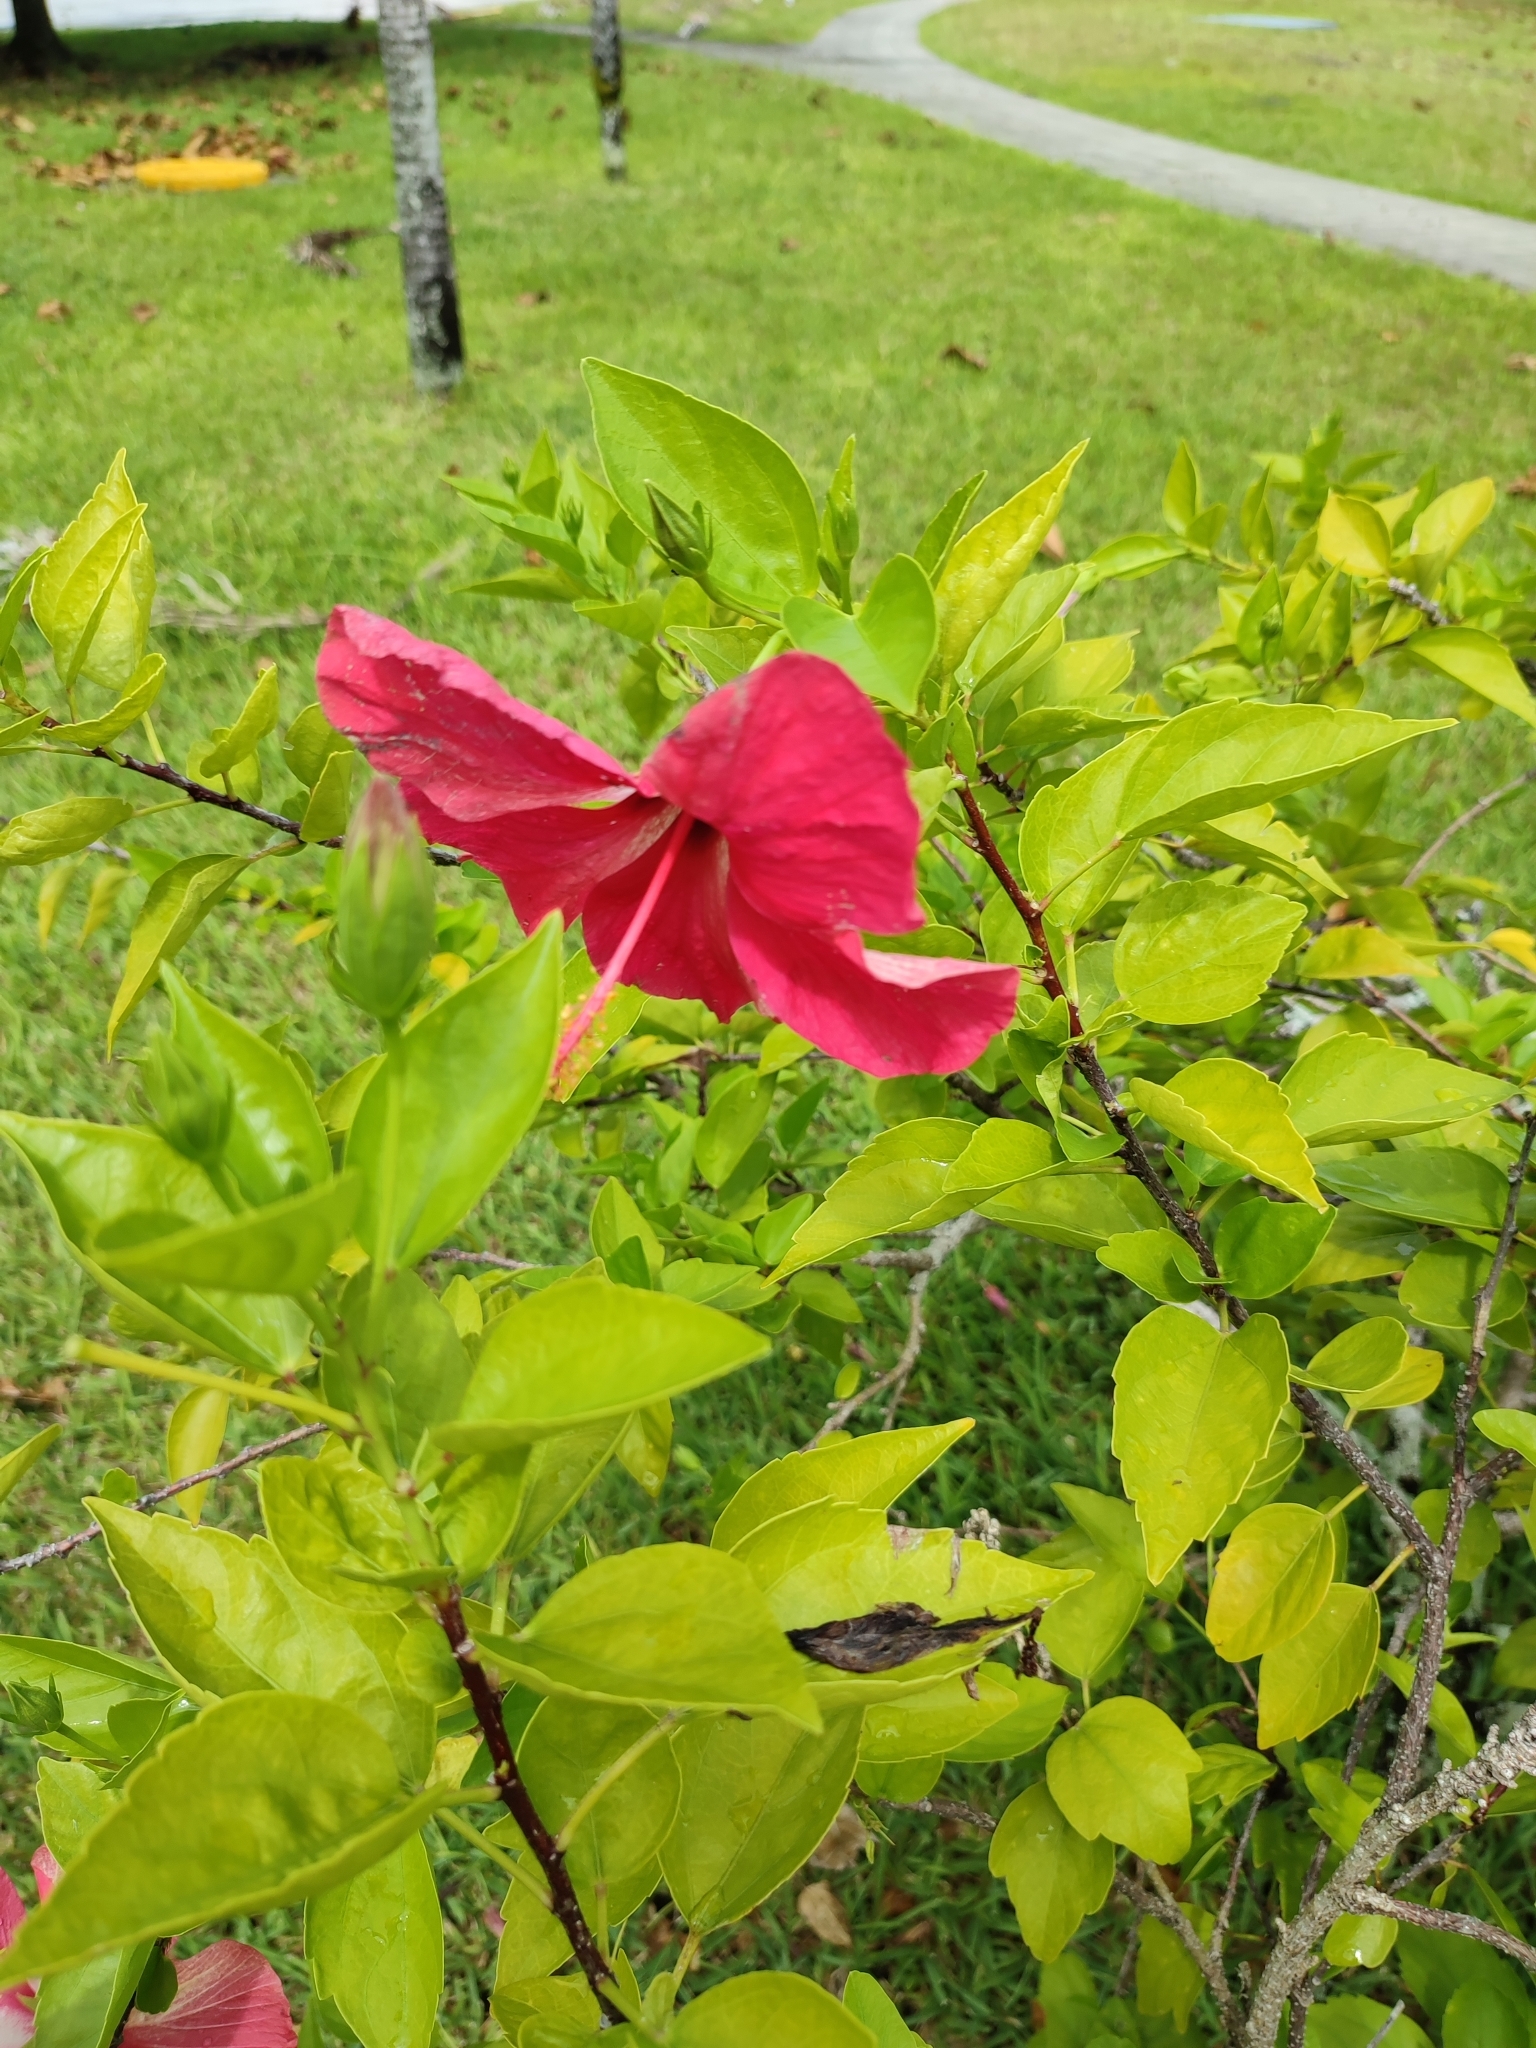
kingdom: Plantae
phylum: Tracheophyta
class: Magnoliopsida
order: Malvales
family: Malvaceae
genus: Hibiscus
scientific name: Hibiscus rosa-sinensis
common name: Hibiscus
